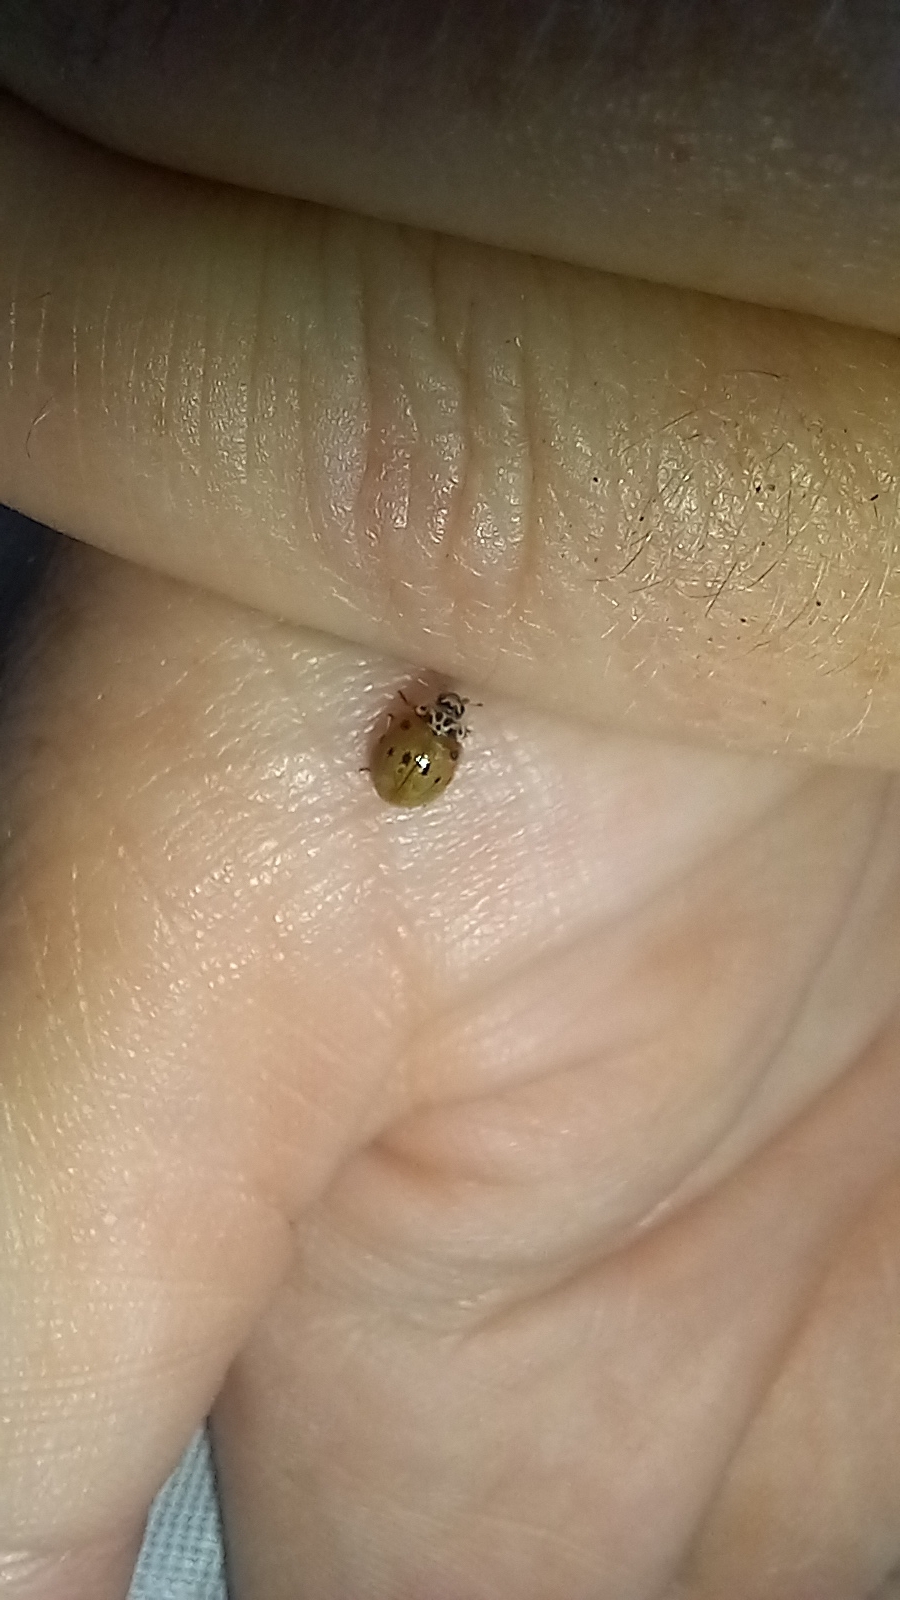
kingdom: Animalia
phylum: Arthropoda
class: Insecta
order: Coleoptera
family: Coccinellidae
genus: Adalia
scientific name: Adalia decempunctata
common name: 10-spot ladybird
